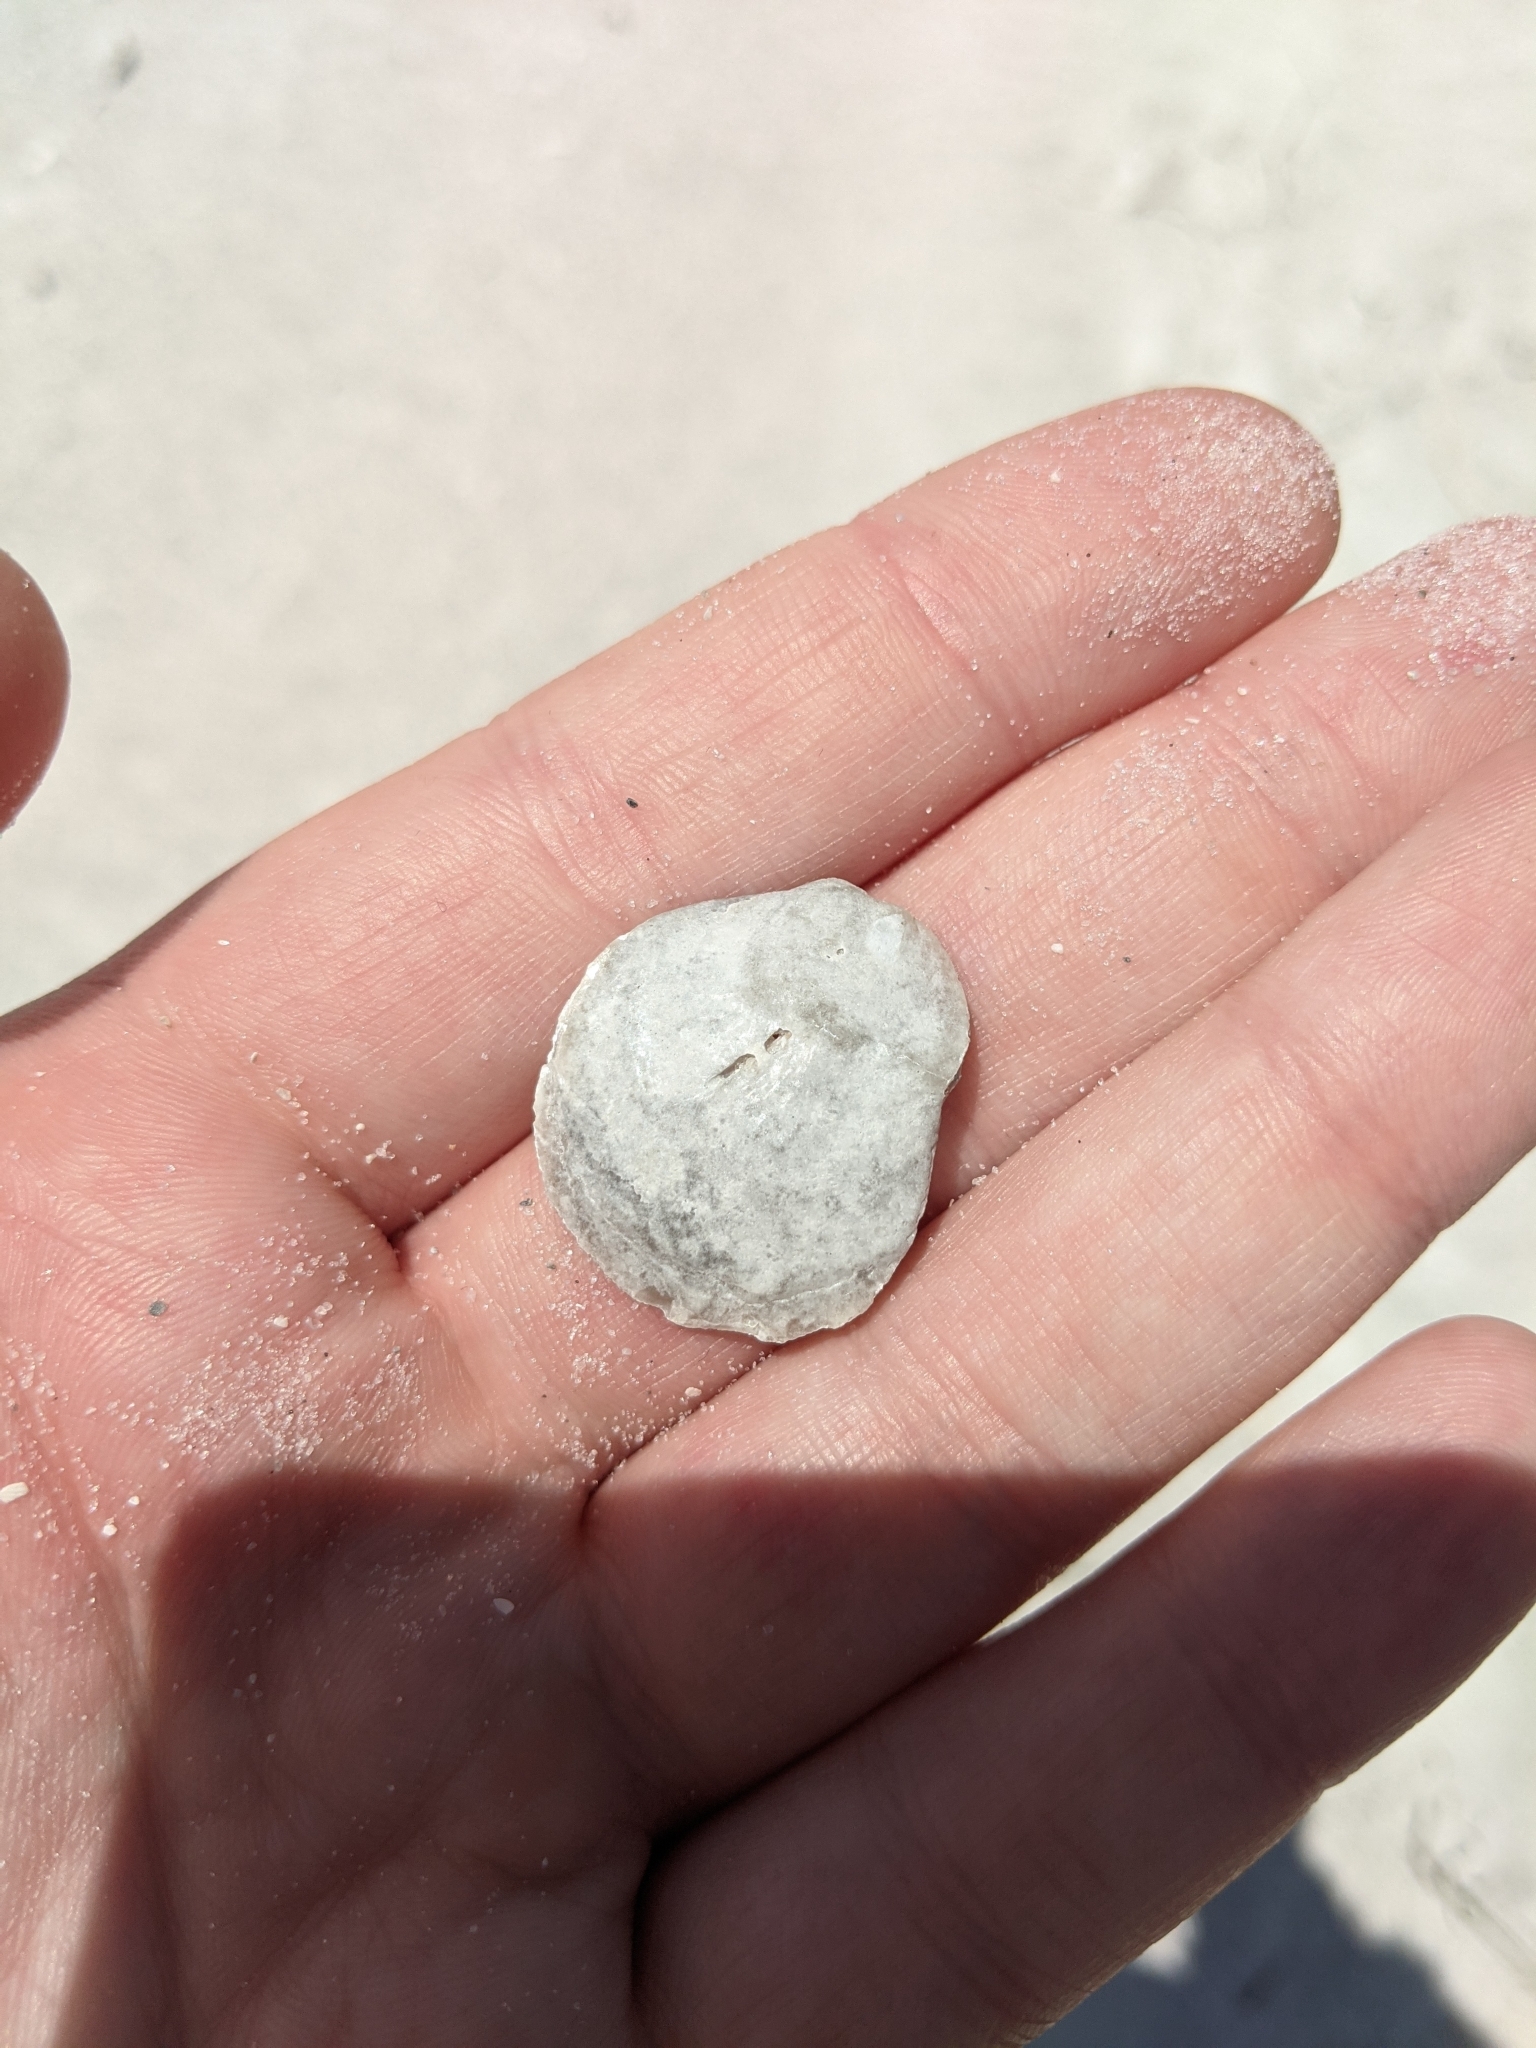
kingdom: Animalia
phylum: Mollusca
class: Bivalvia
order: Pectinida
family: Anomiidae
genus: Anomia
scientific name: Anomia simplex
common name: Common jingle shell
